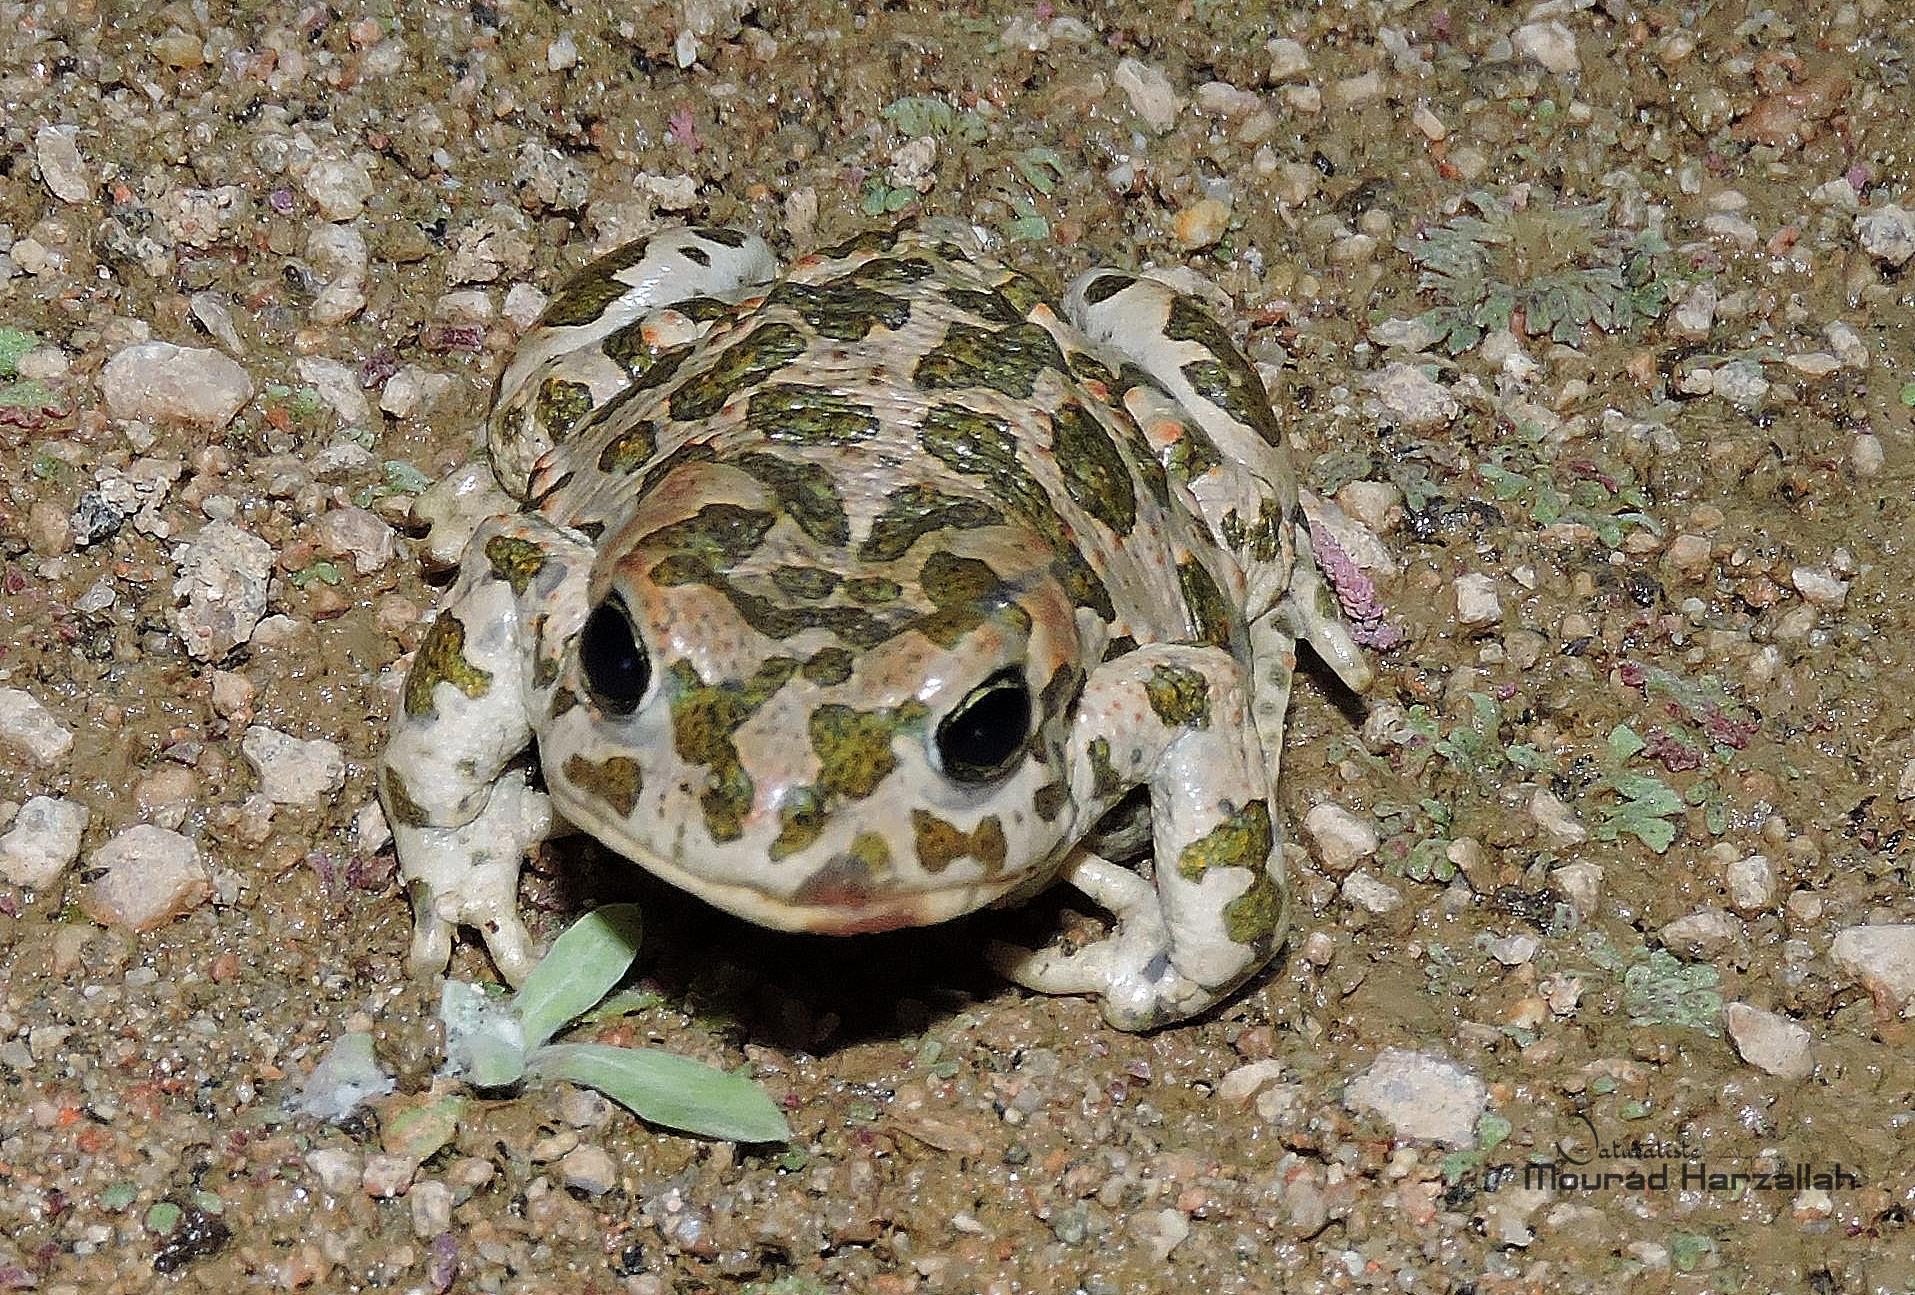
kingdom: Animalia
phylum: Chordata
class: Amphibia
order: Anura
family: Bufonidae
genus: Bufotes
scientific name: Bufotes boulengeri
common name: African green toad
